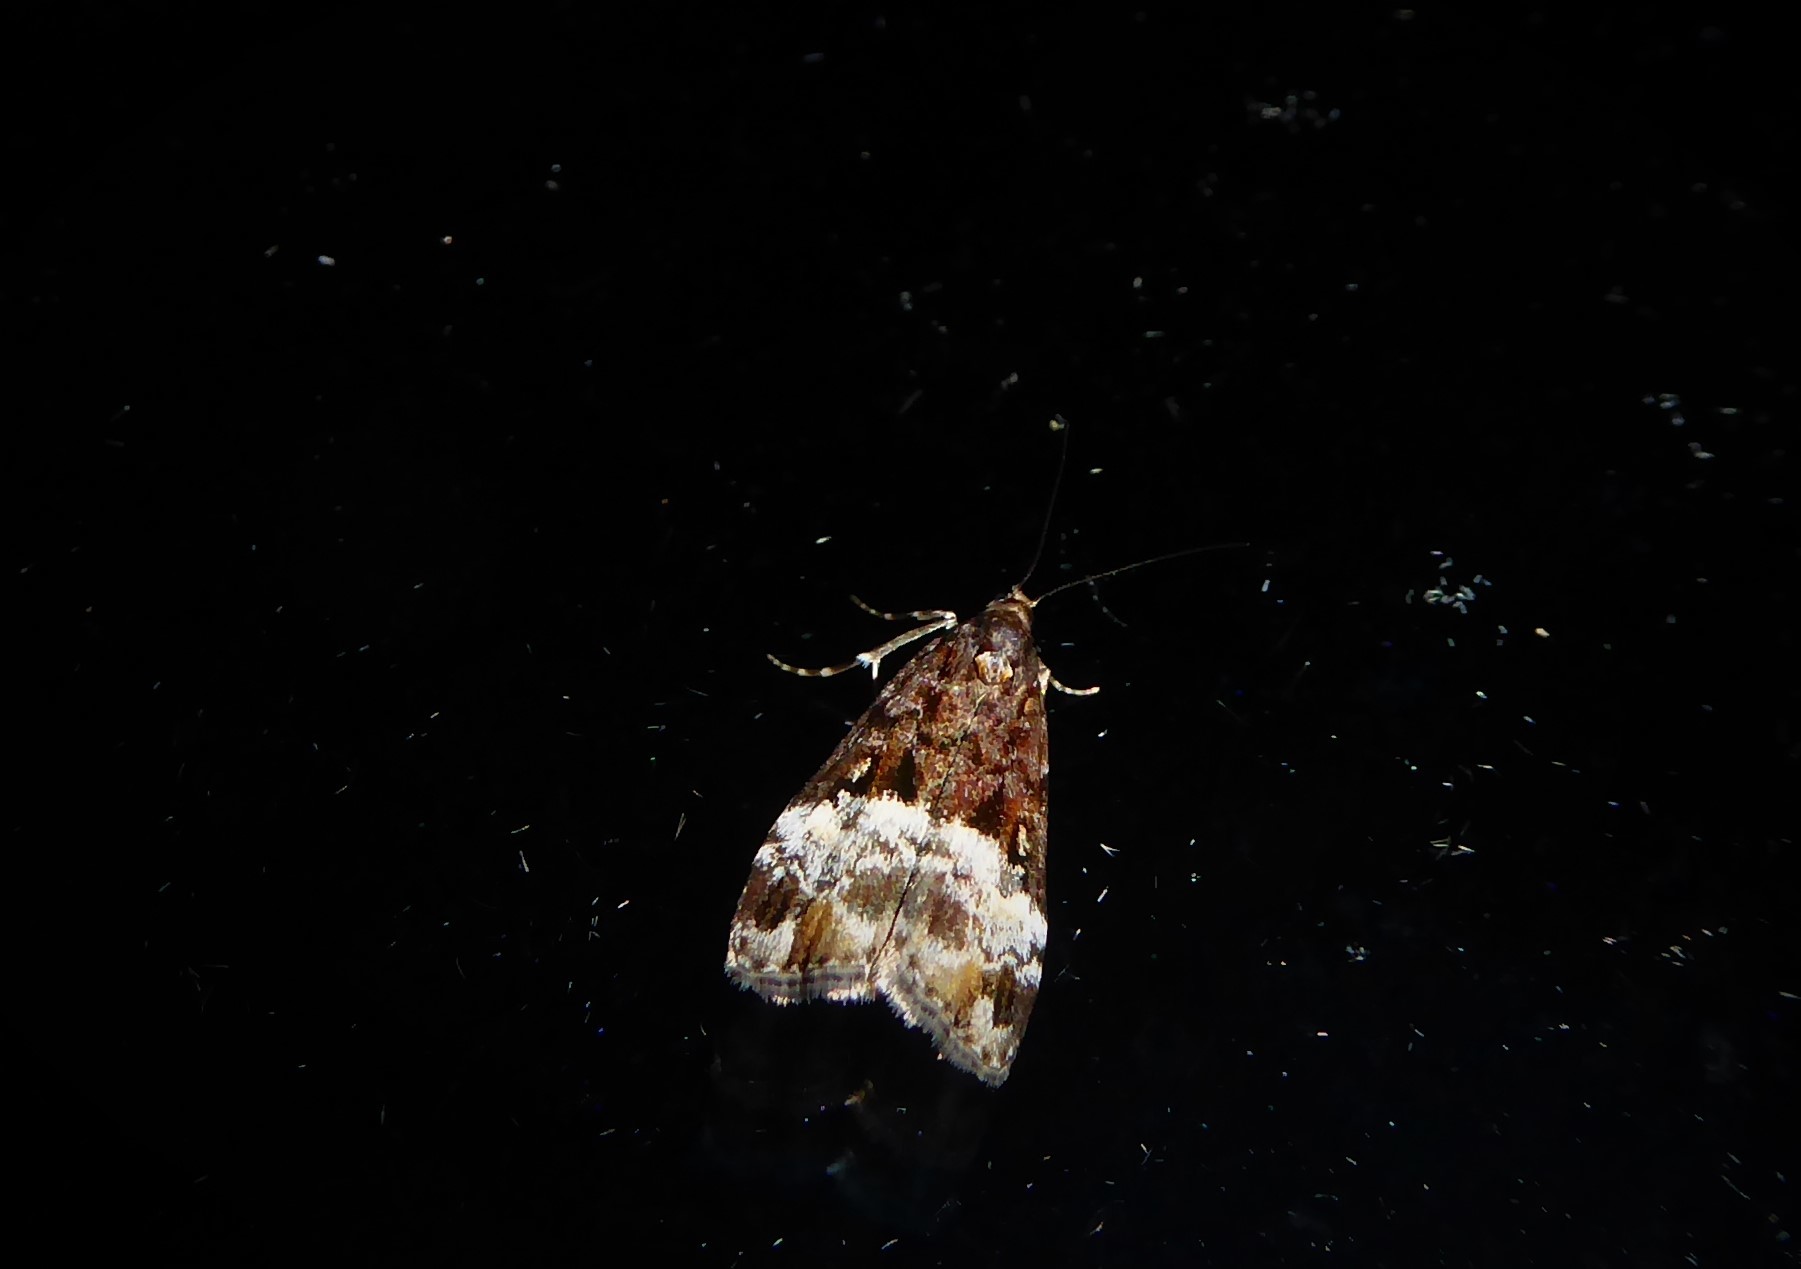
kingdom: Animalia
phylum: Arthropoda
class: Insecta
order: Lepidoptera
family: Crambidae
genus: Scoparia
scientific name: Scoparia minusculalis
